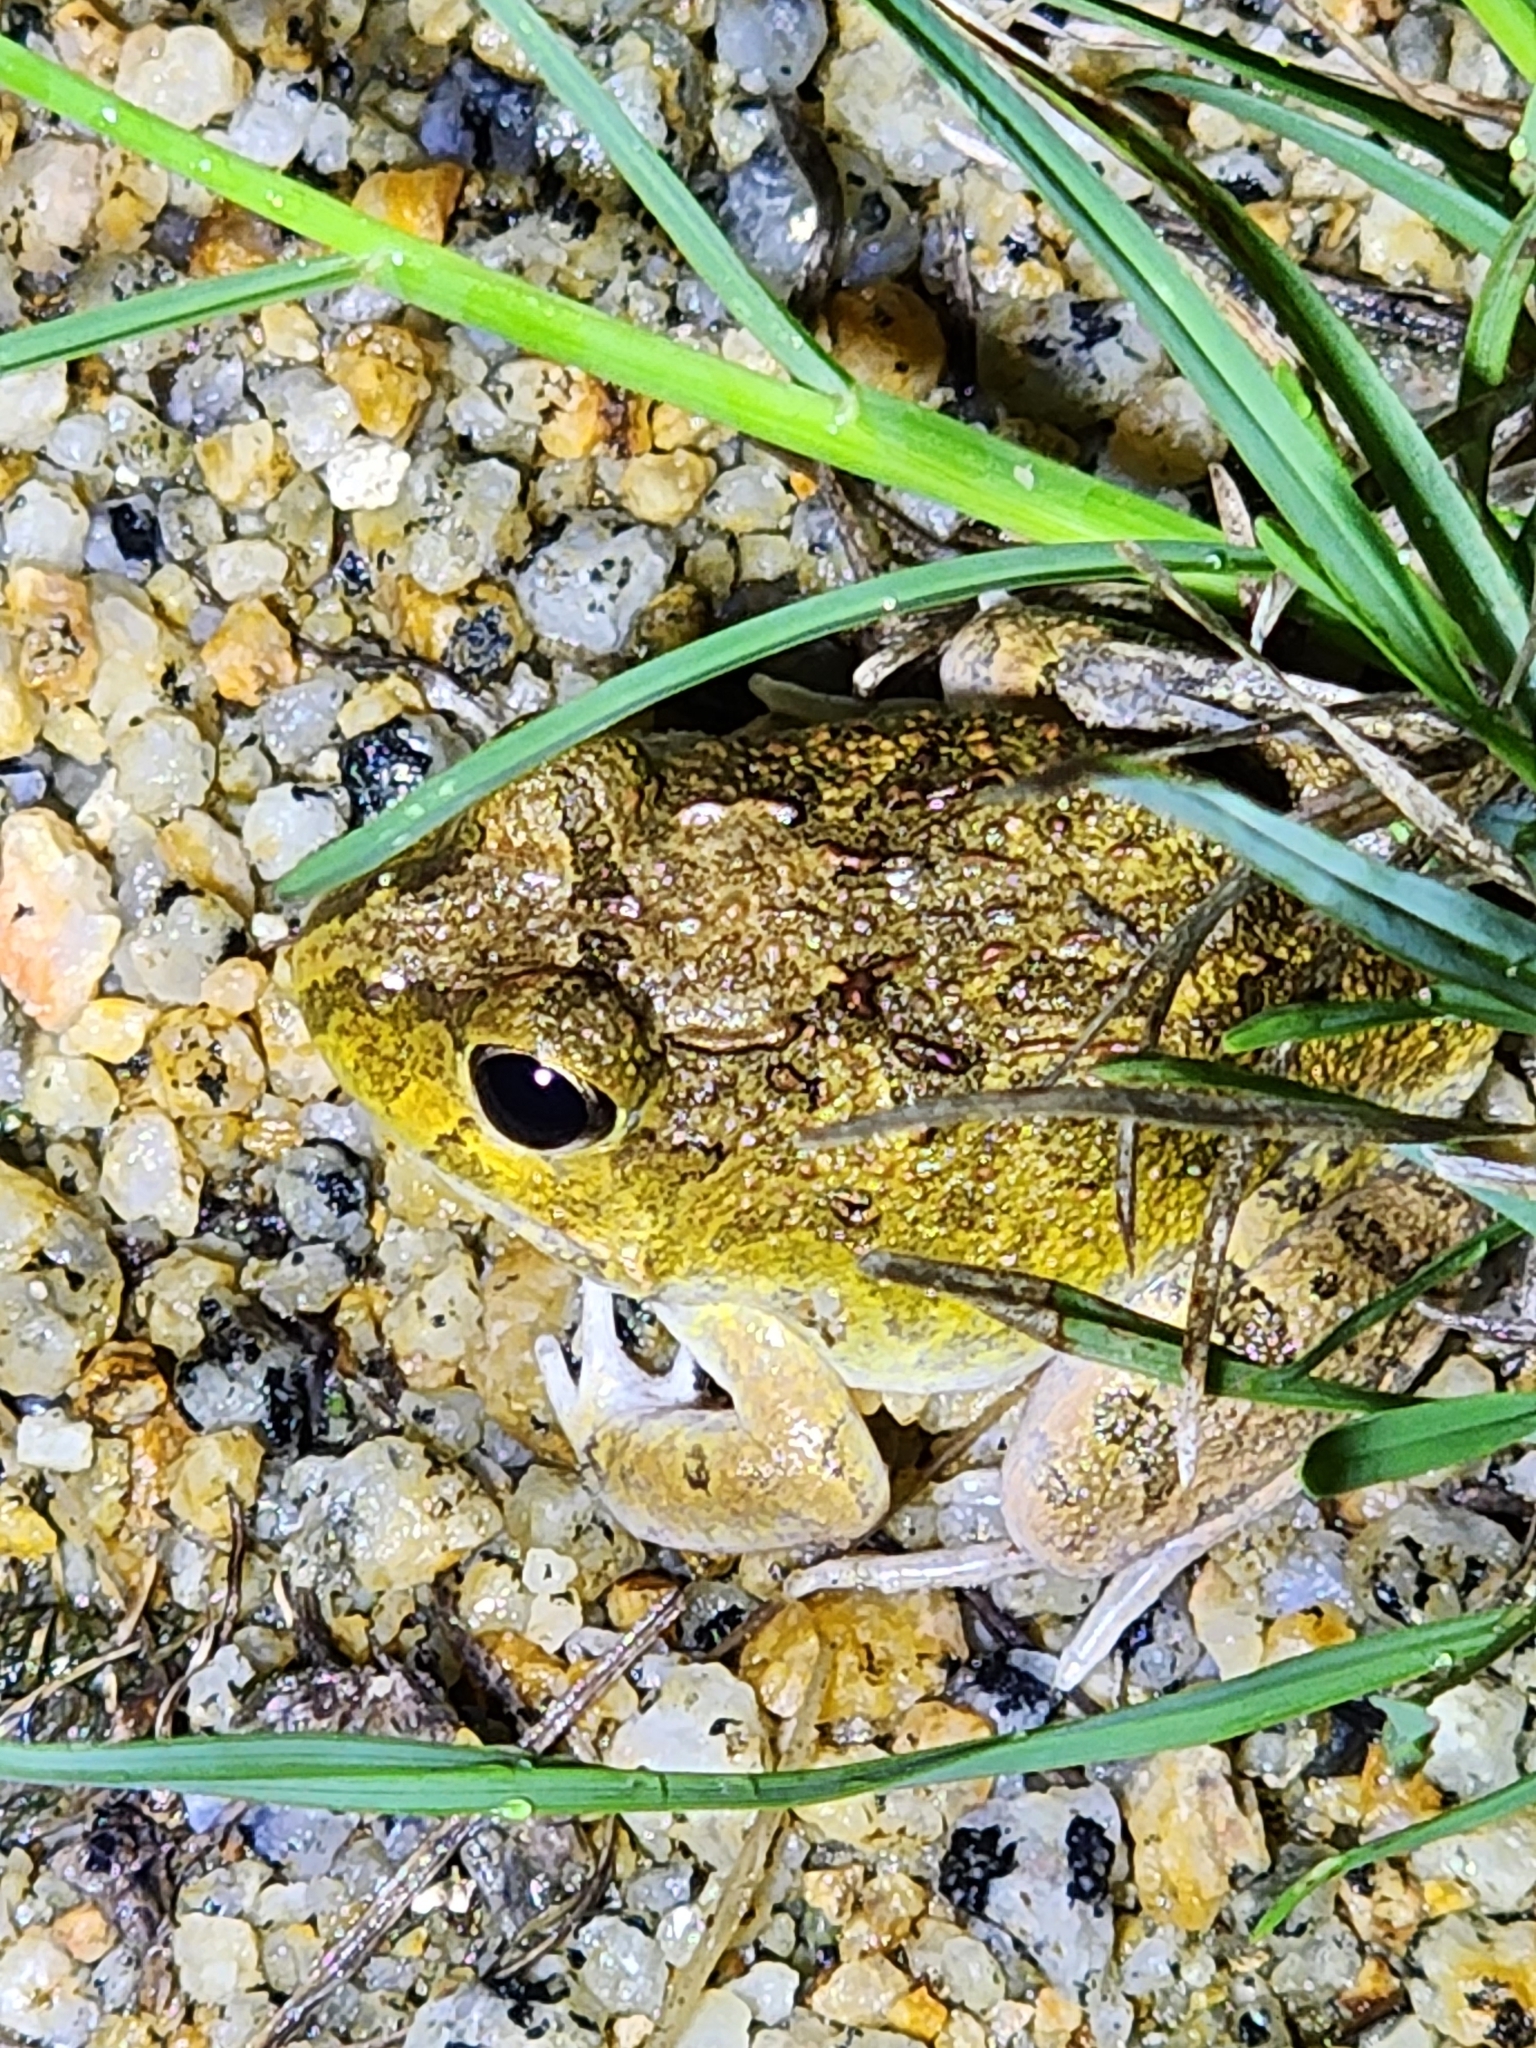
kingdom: Animalia
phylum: Chordata
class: Amphibia
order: Anura
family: Limnodynastidae
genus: Platyplectrum
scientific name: Platyplectrum ornatum
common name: Ornate burrowing frog
